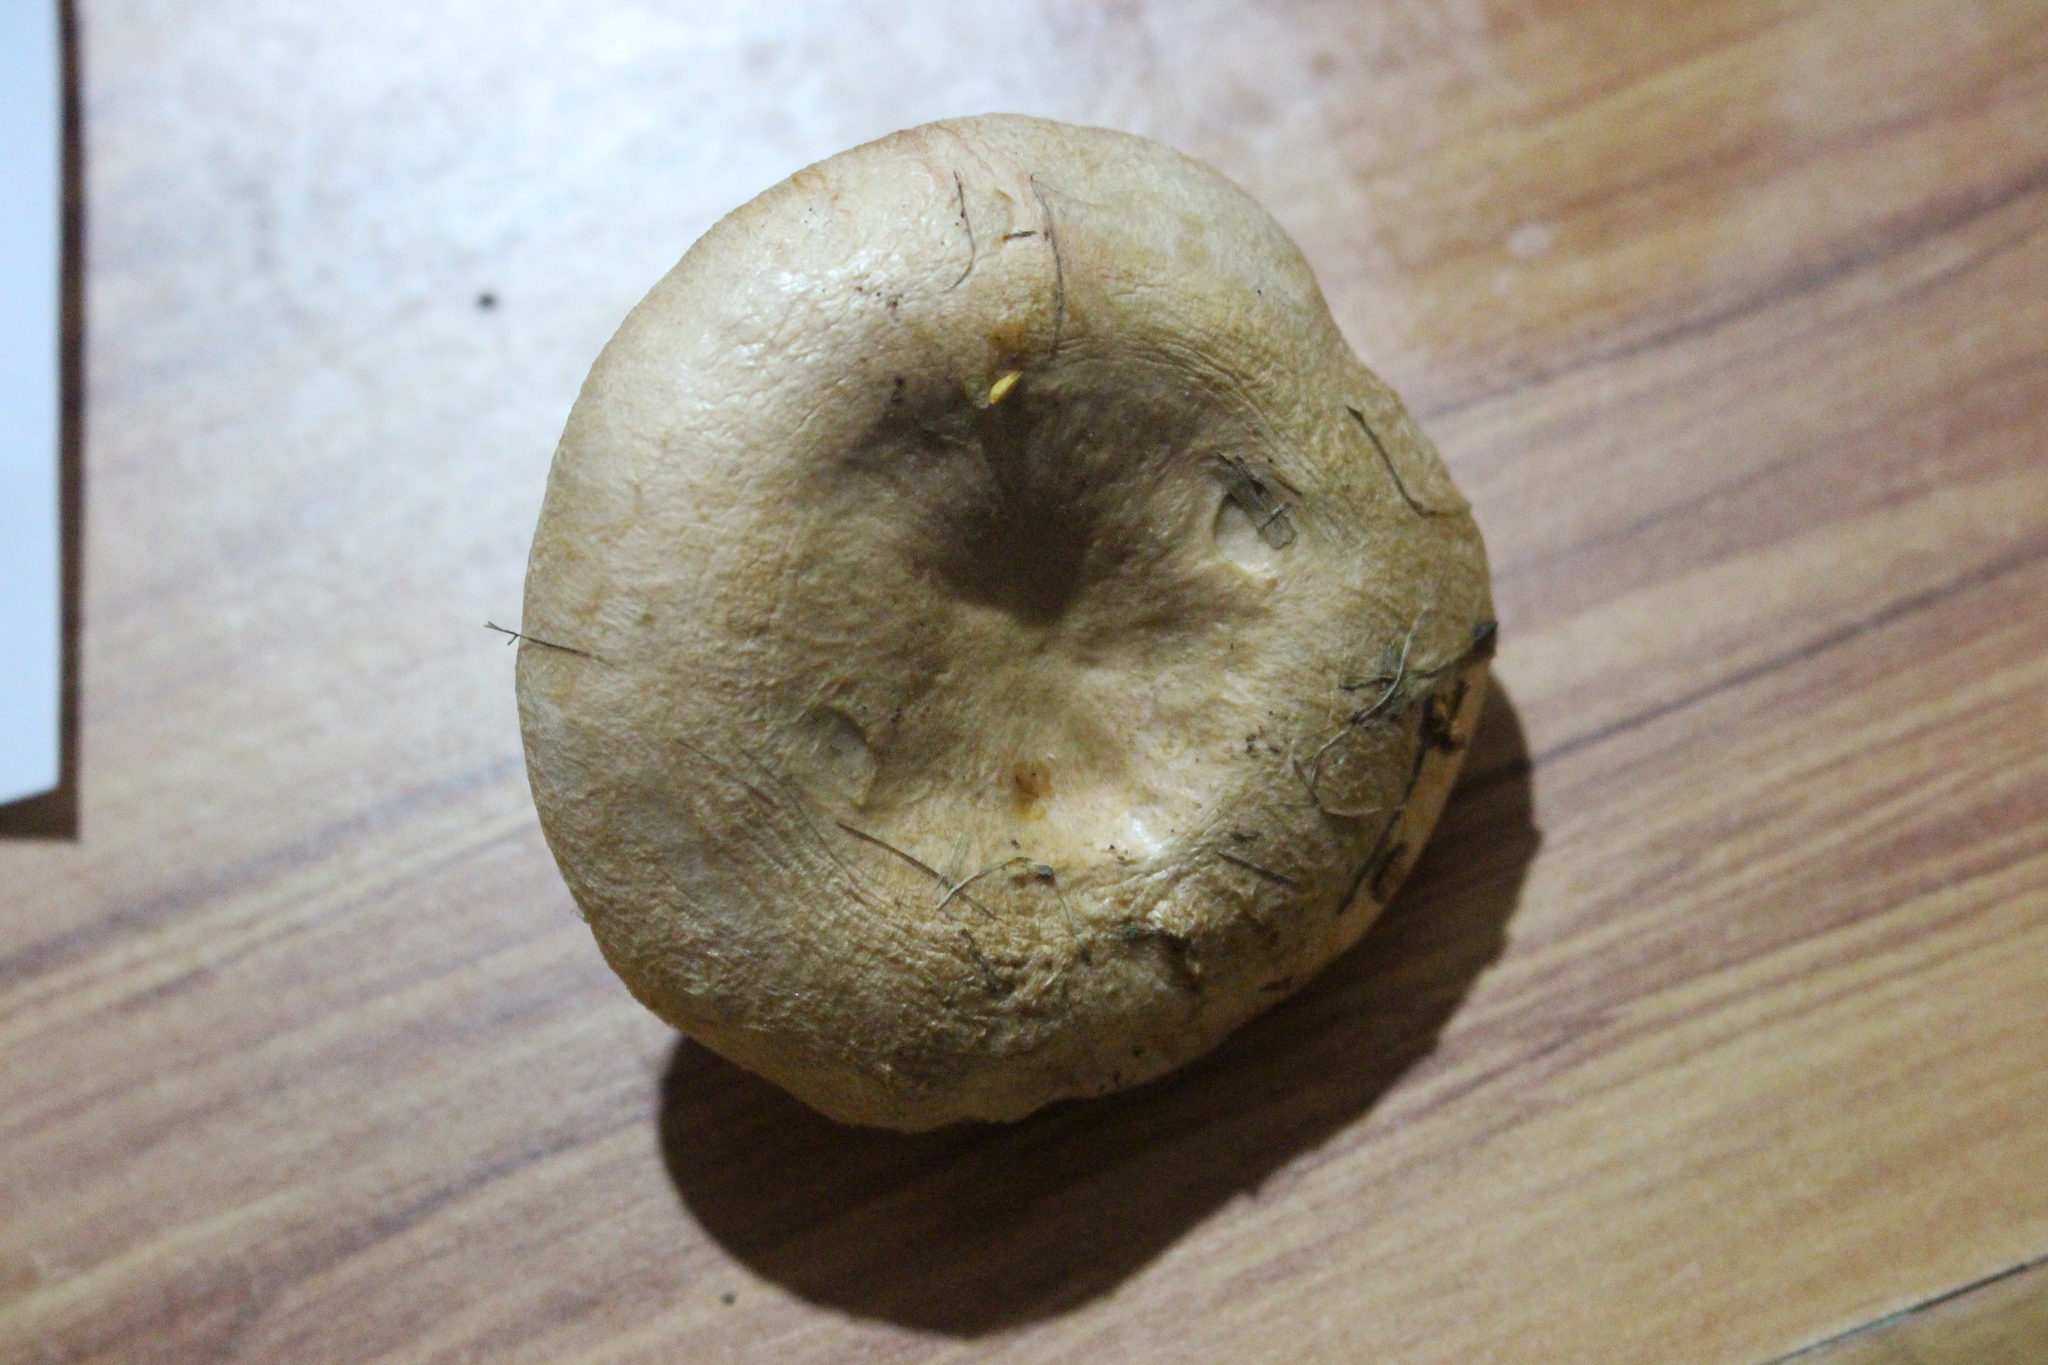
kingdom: Fungi
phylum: Basidiomycota
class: Agaricomycetes
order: Russulales
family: Russulaceae
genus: Lactarius
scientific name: Lactarius pubescens
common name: Bearded milkcap
